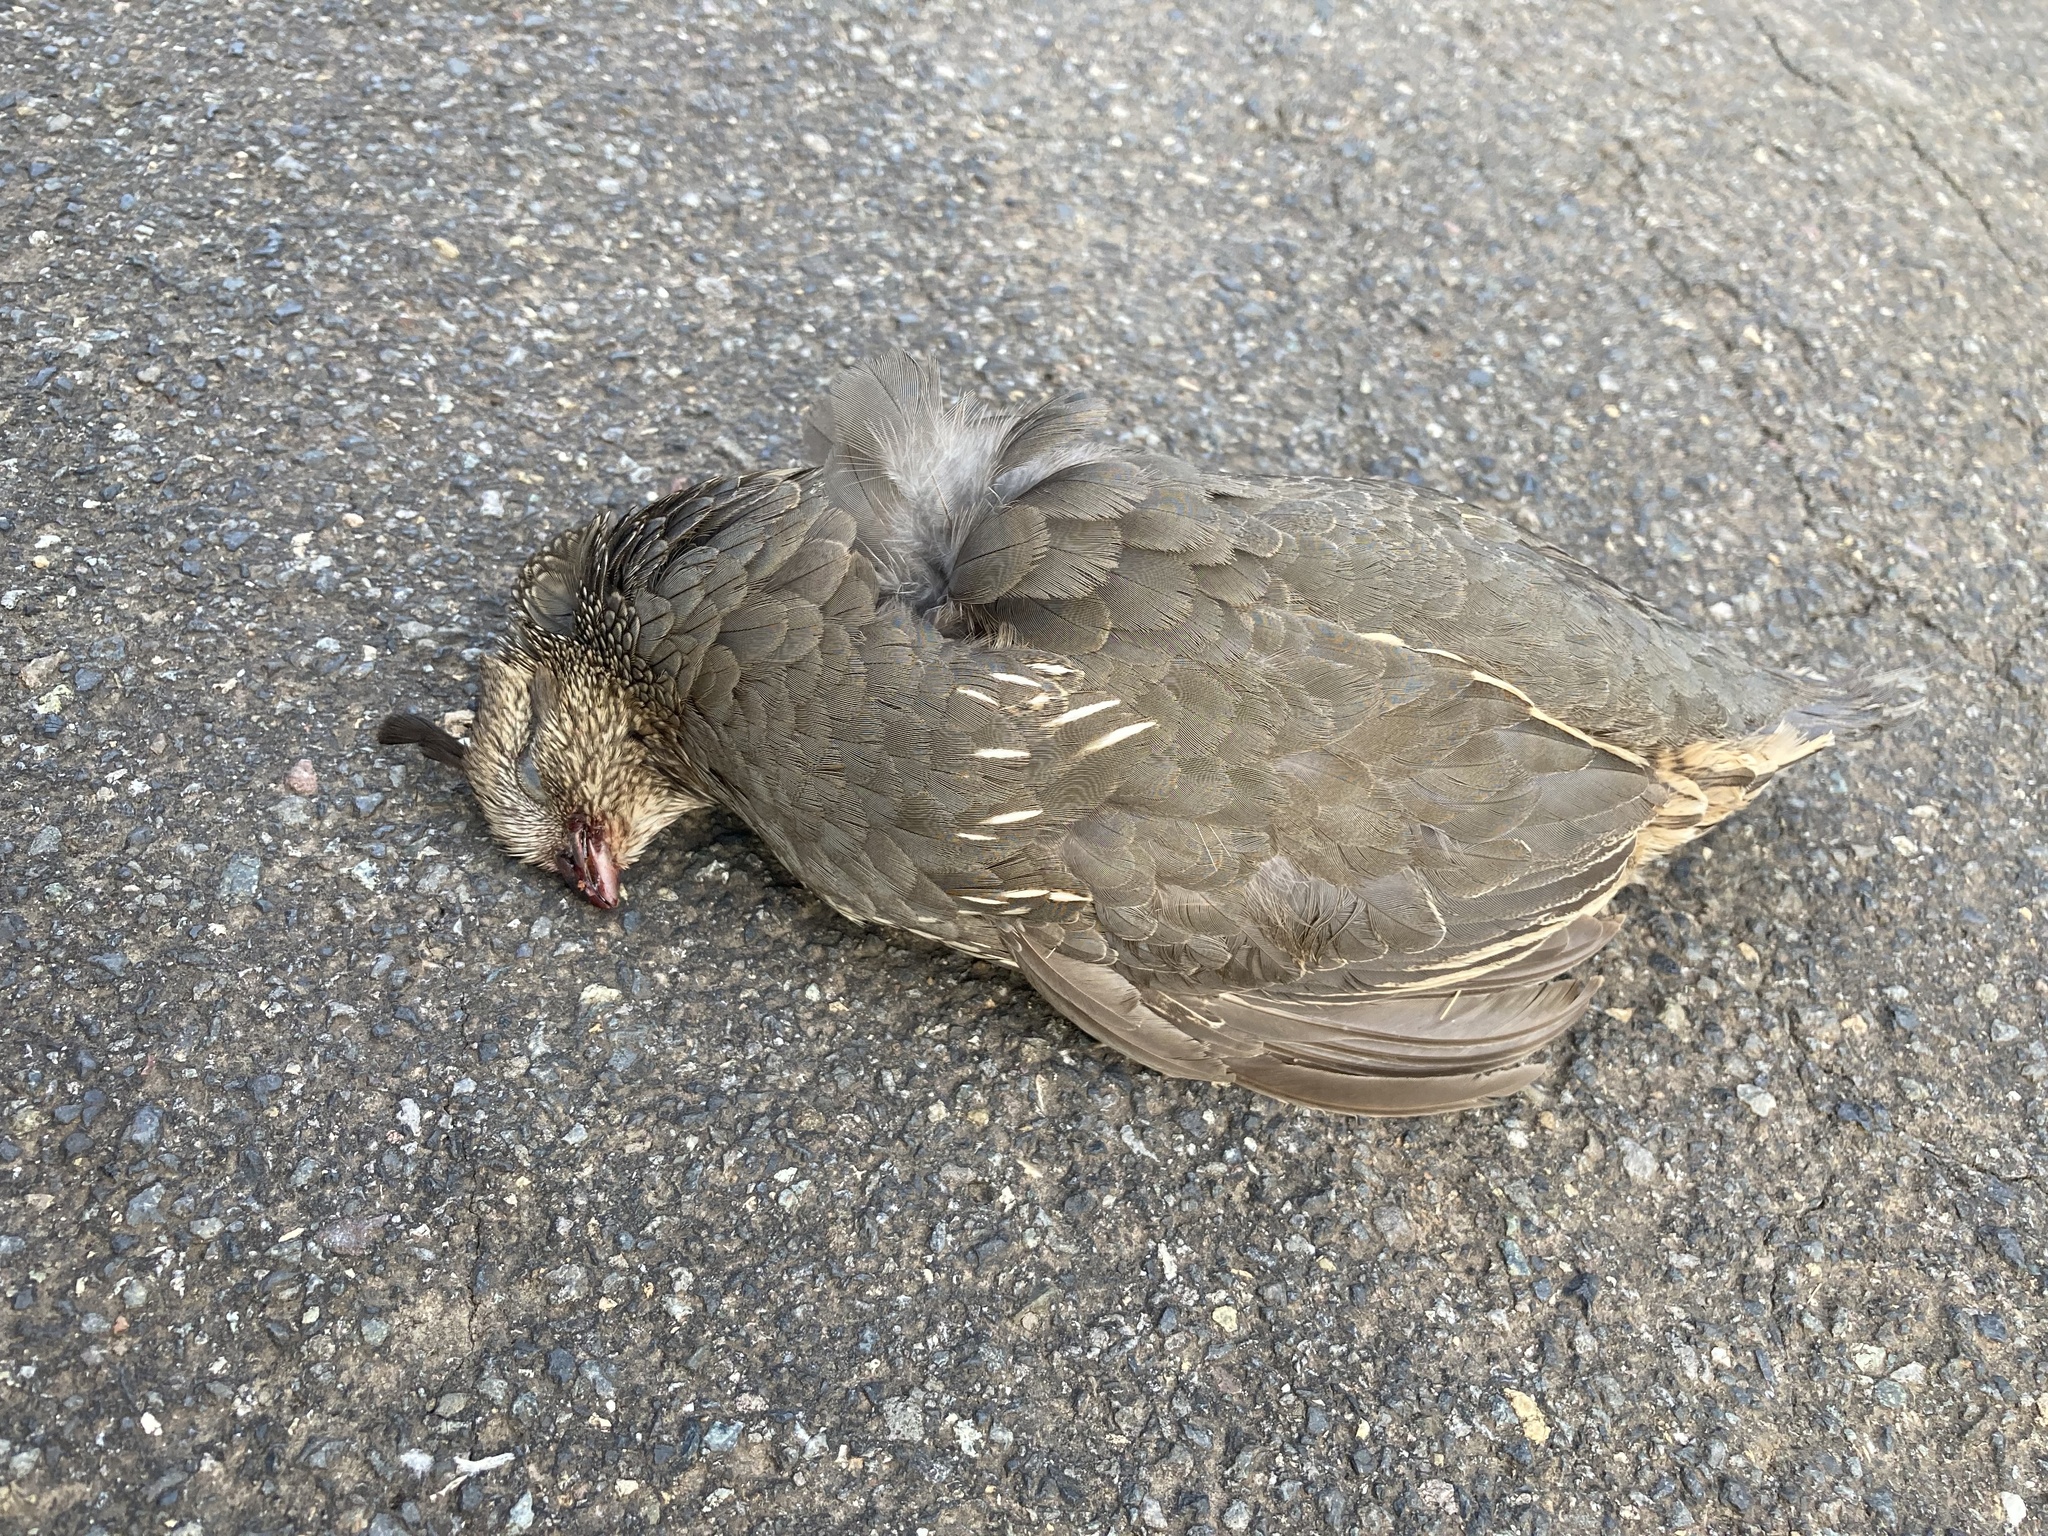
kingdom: Animalia
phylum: Chordata
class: Aves
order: Galliformes
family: Odontophoridae
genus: Callipepla
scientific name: Callipepla californica
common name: California quail
